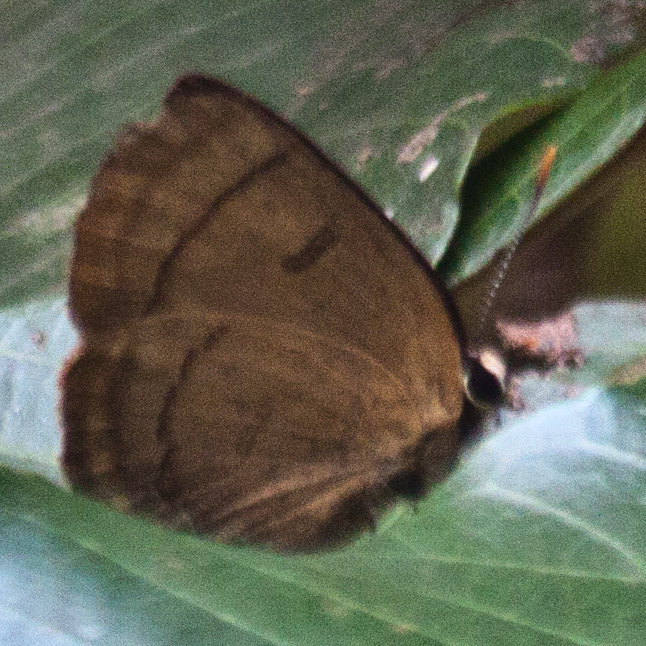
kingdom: Animalia
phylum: Arthropoda
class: Insecta
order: Lepidoptera
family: Lycaenidae
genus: Rapala
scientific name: Rapala pheretima
